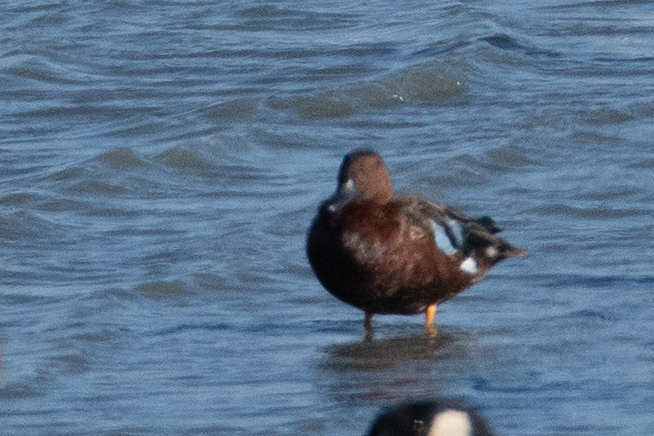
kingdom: Animalia
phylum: Chordata
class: Aves
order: Anseriformes
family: Anatidae
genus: Spatula
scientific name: Spatula cyanoptera
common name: Cinnamon teal
